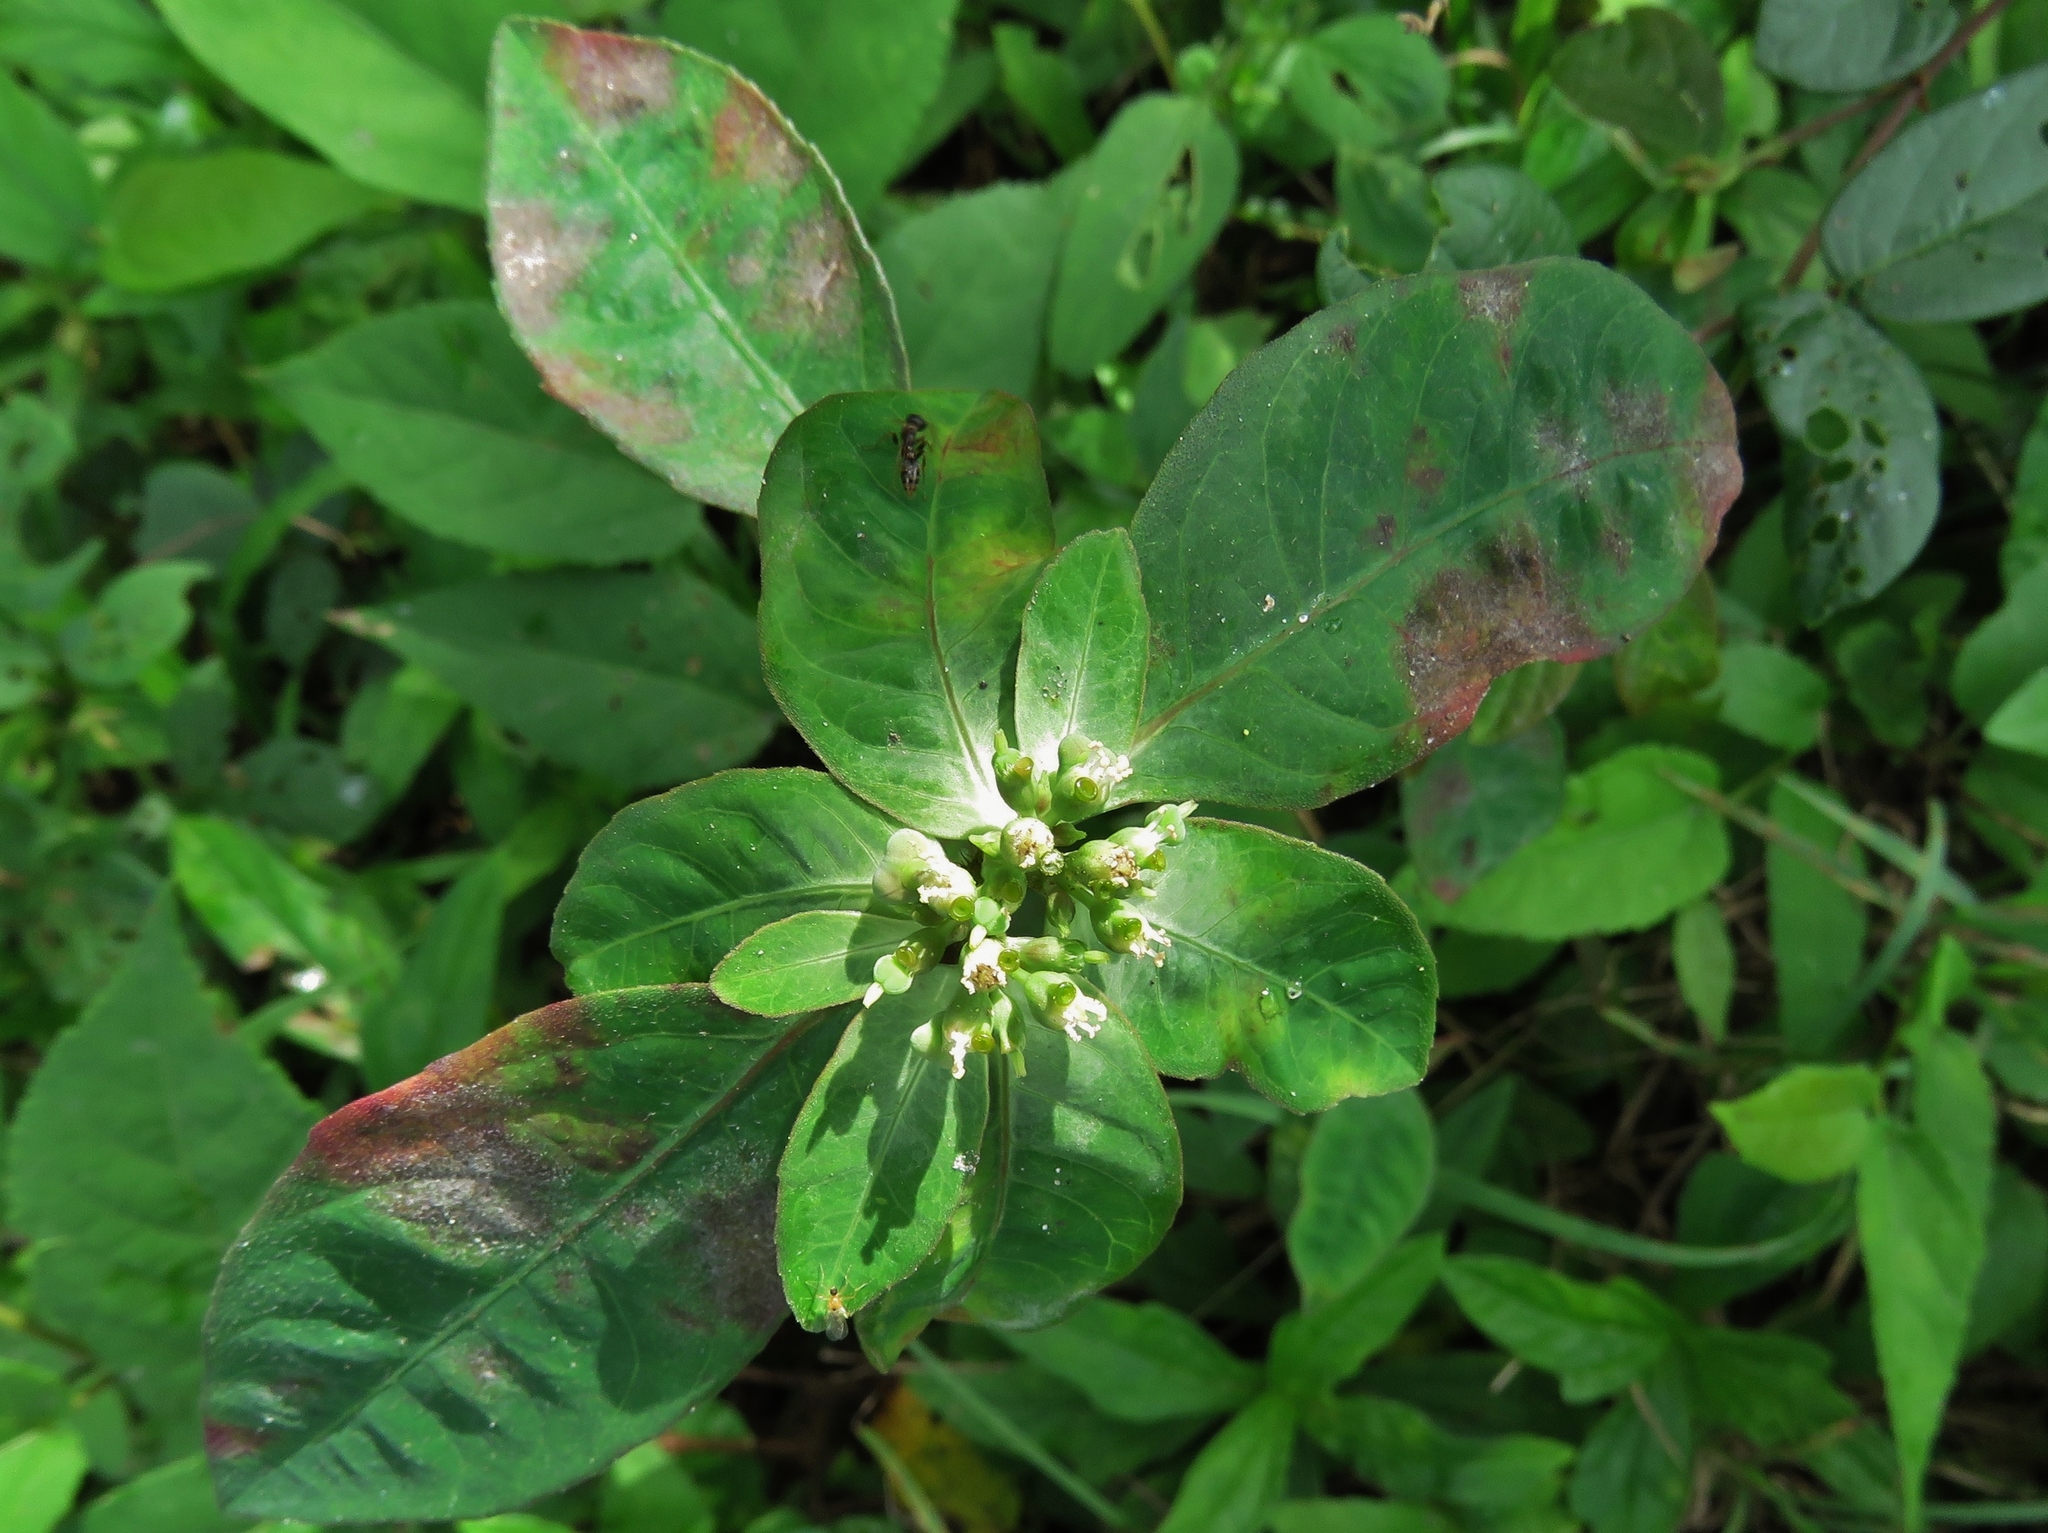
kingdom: Plantae
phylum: Tracheophyta
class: Magnoliopsida
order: Malpighiales
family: Euphorbiaceae
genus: Euphorbia
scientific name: Euphorbia heterophylla
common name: Mexican fireplant
